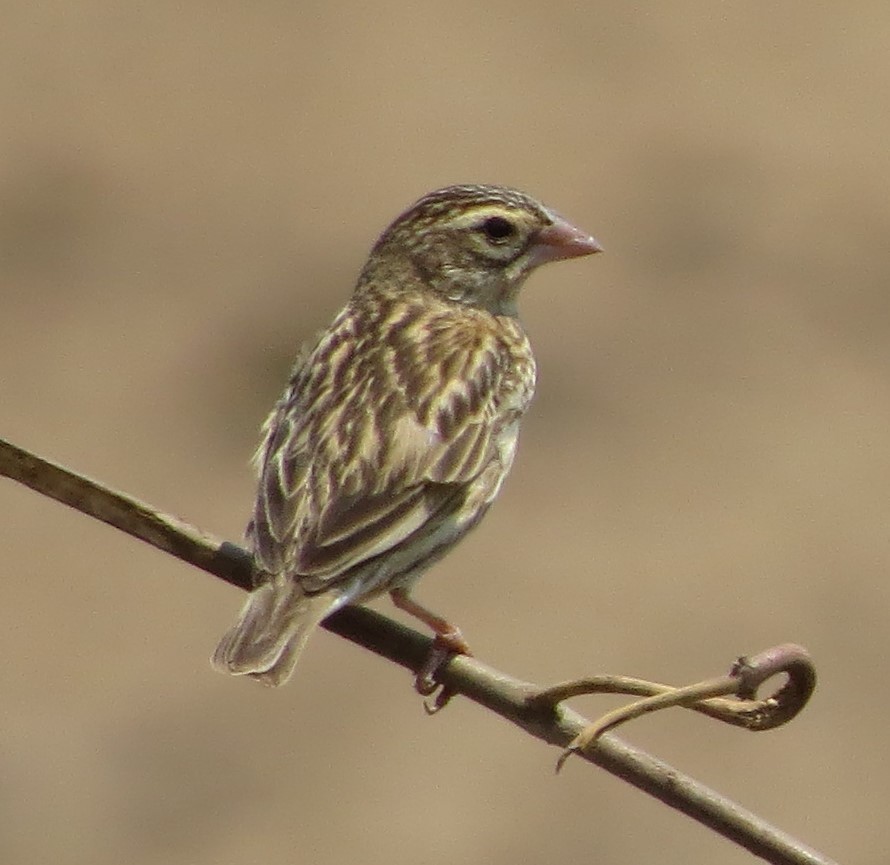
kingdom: Animalia
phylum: Chordata
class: Aves
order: Passeriformes
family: Ploceidae
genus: Euplectes
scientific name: Euplectes orix
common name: Southern red bishop
